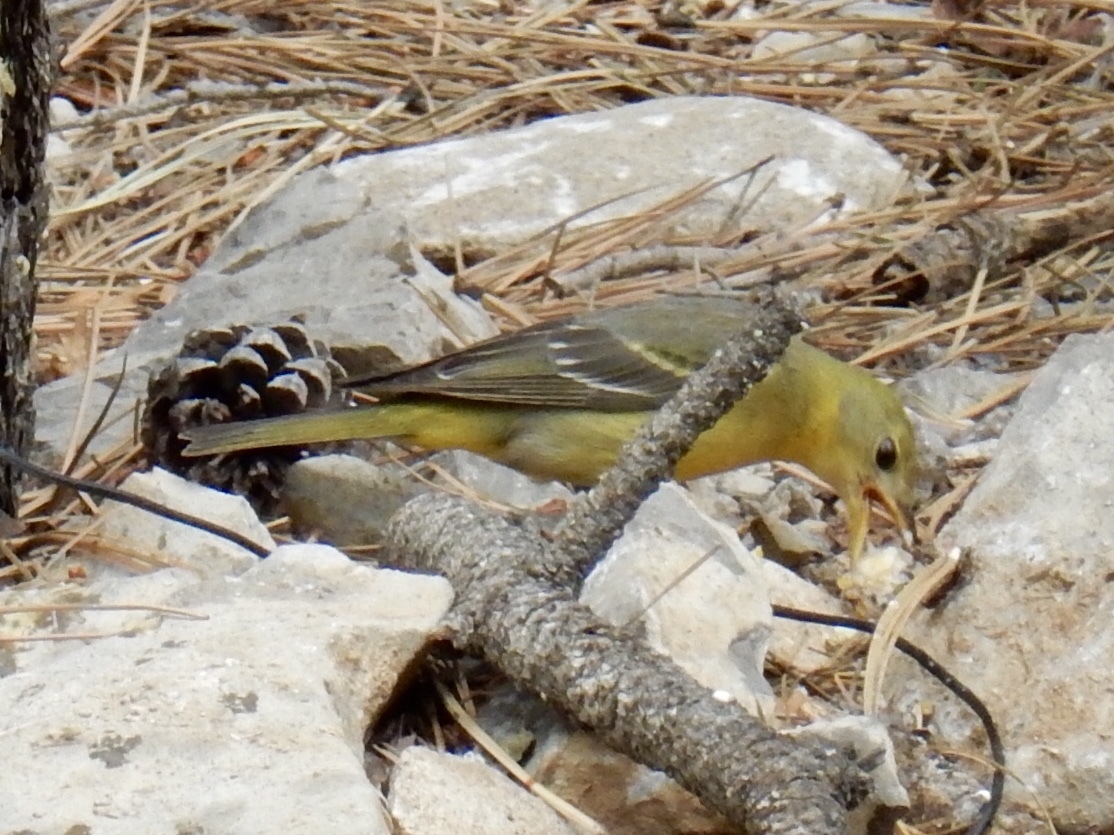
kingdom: Animalia
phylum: Chordata
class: Aves
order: Passeriformes
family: Cardinalidae
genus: Piranga
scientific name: Piranga ludoviciana
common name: Western tanager
